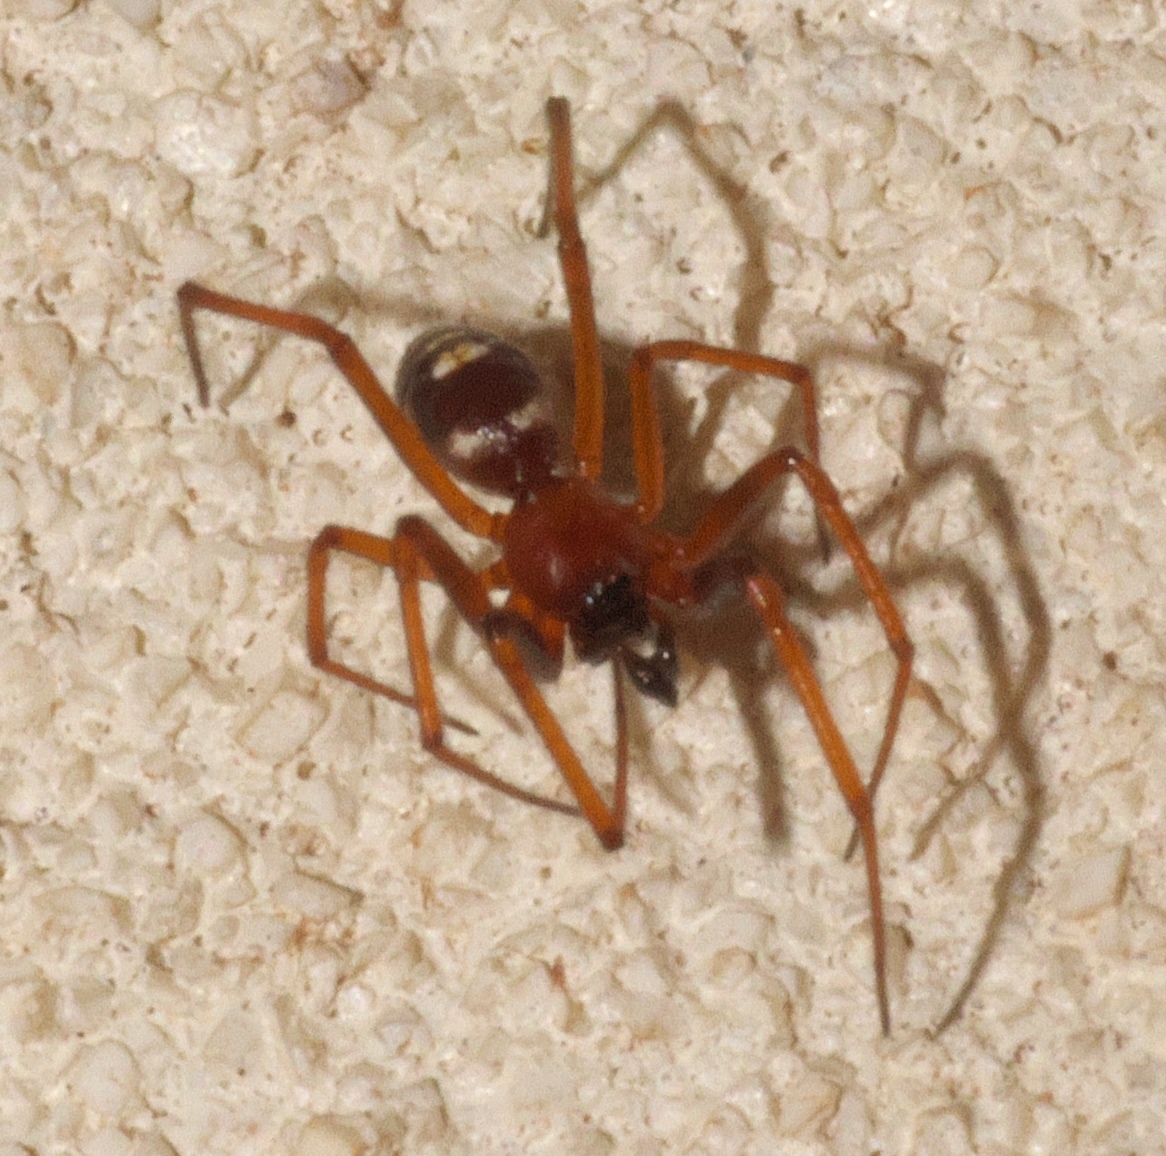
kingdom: Animalia
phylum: Arthropoda
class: Arachnida
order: Araneae
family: Theridiidae
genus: Asagena
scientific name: Asagena medialis
